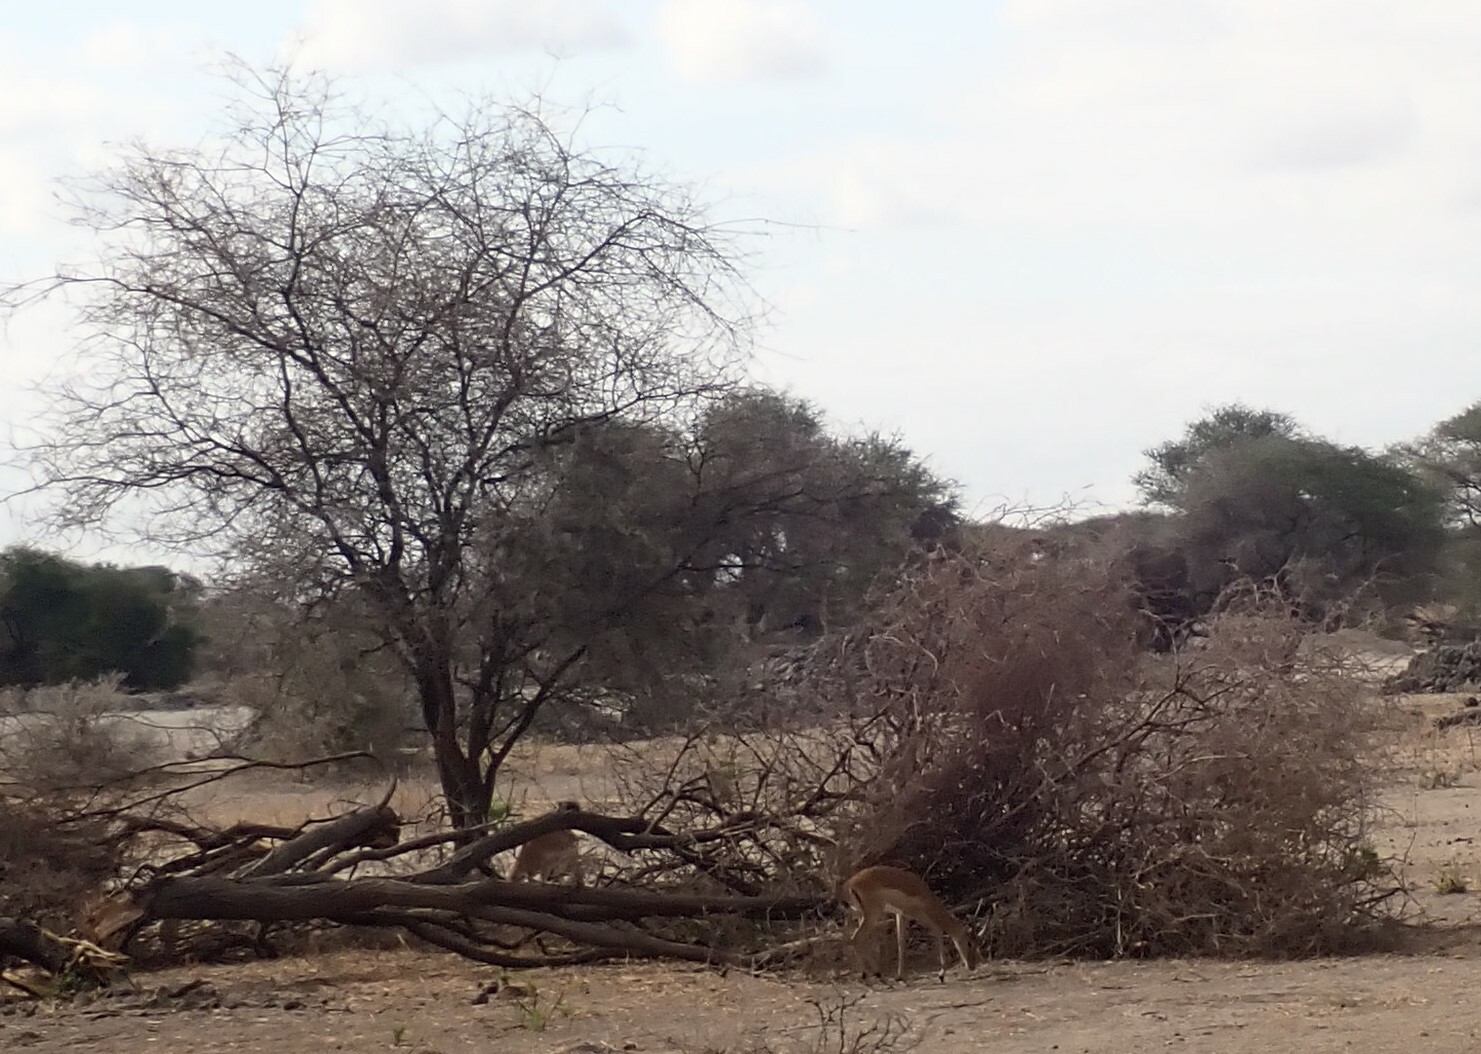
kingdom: Animalia
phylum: Chordata
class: Mammalia
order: Artiodactyla
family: Bovidae
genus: Aepyceros
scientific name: Aepyceros melampus
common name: Impala
